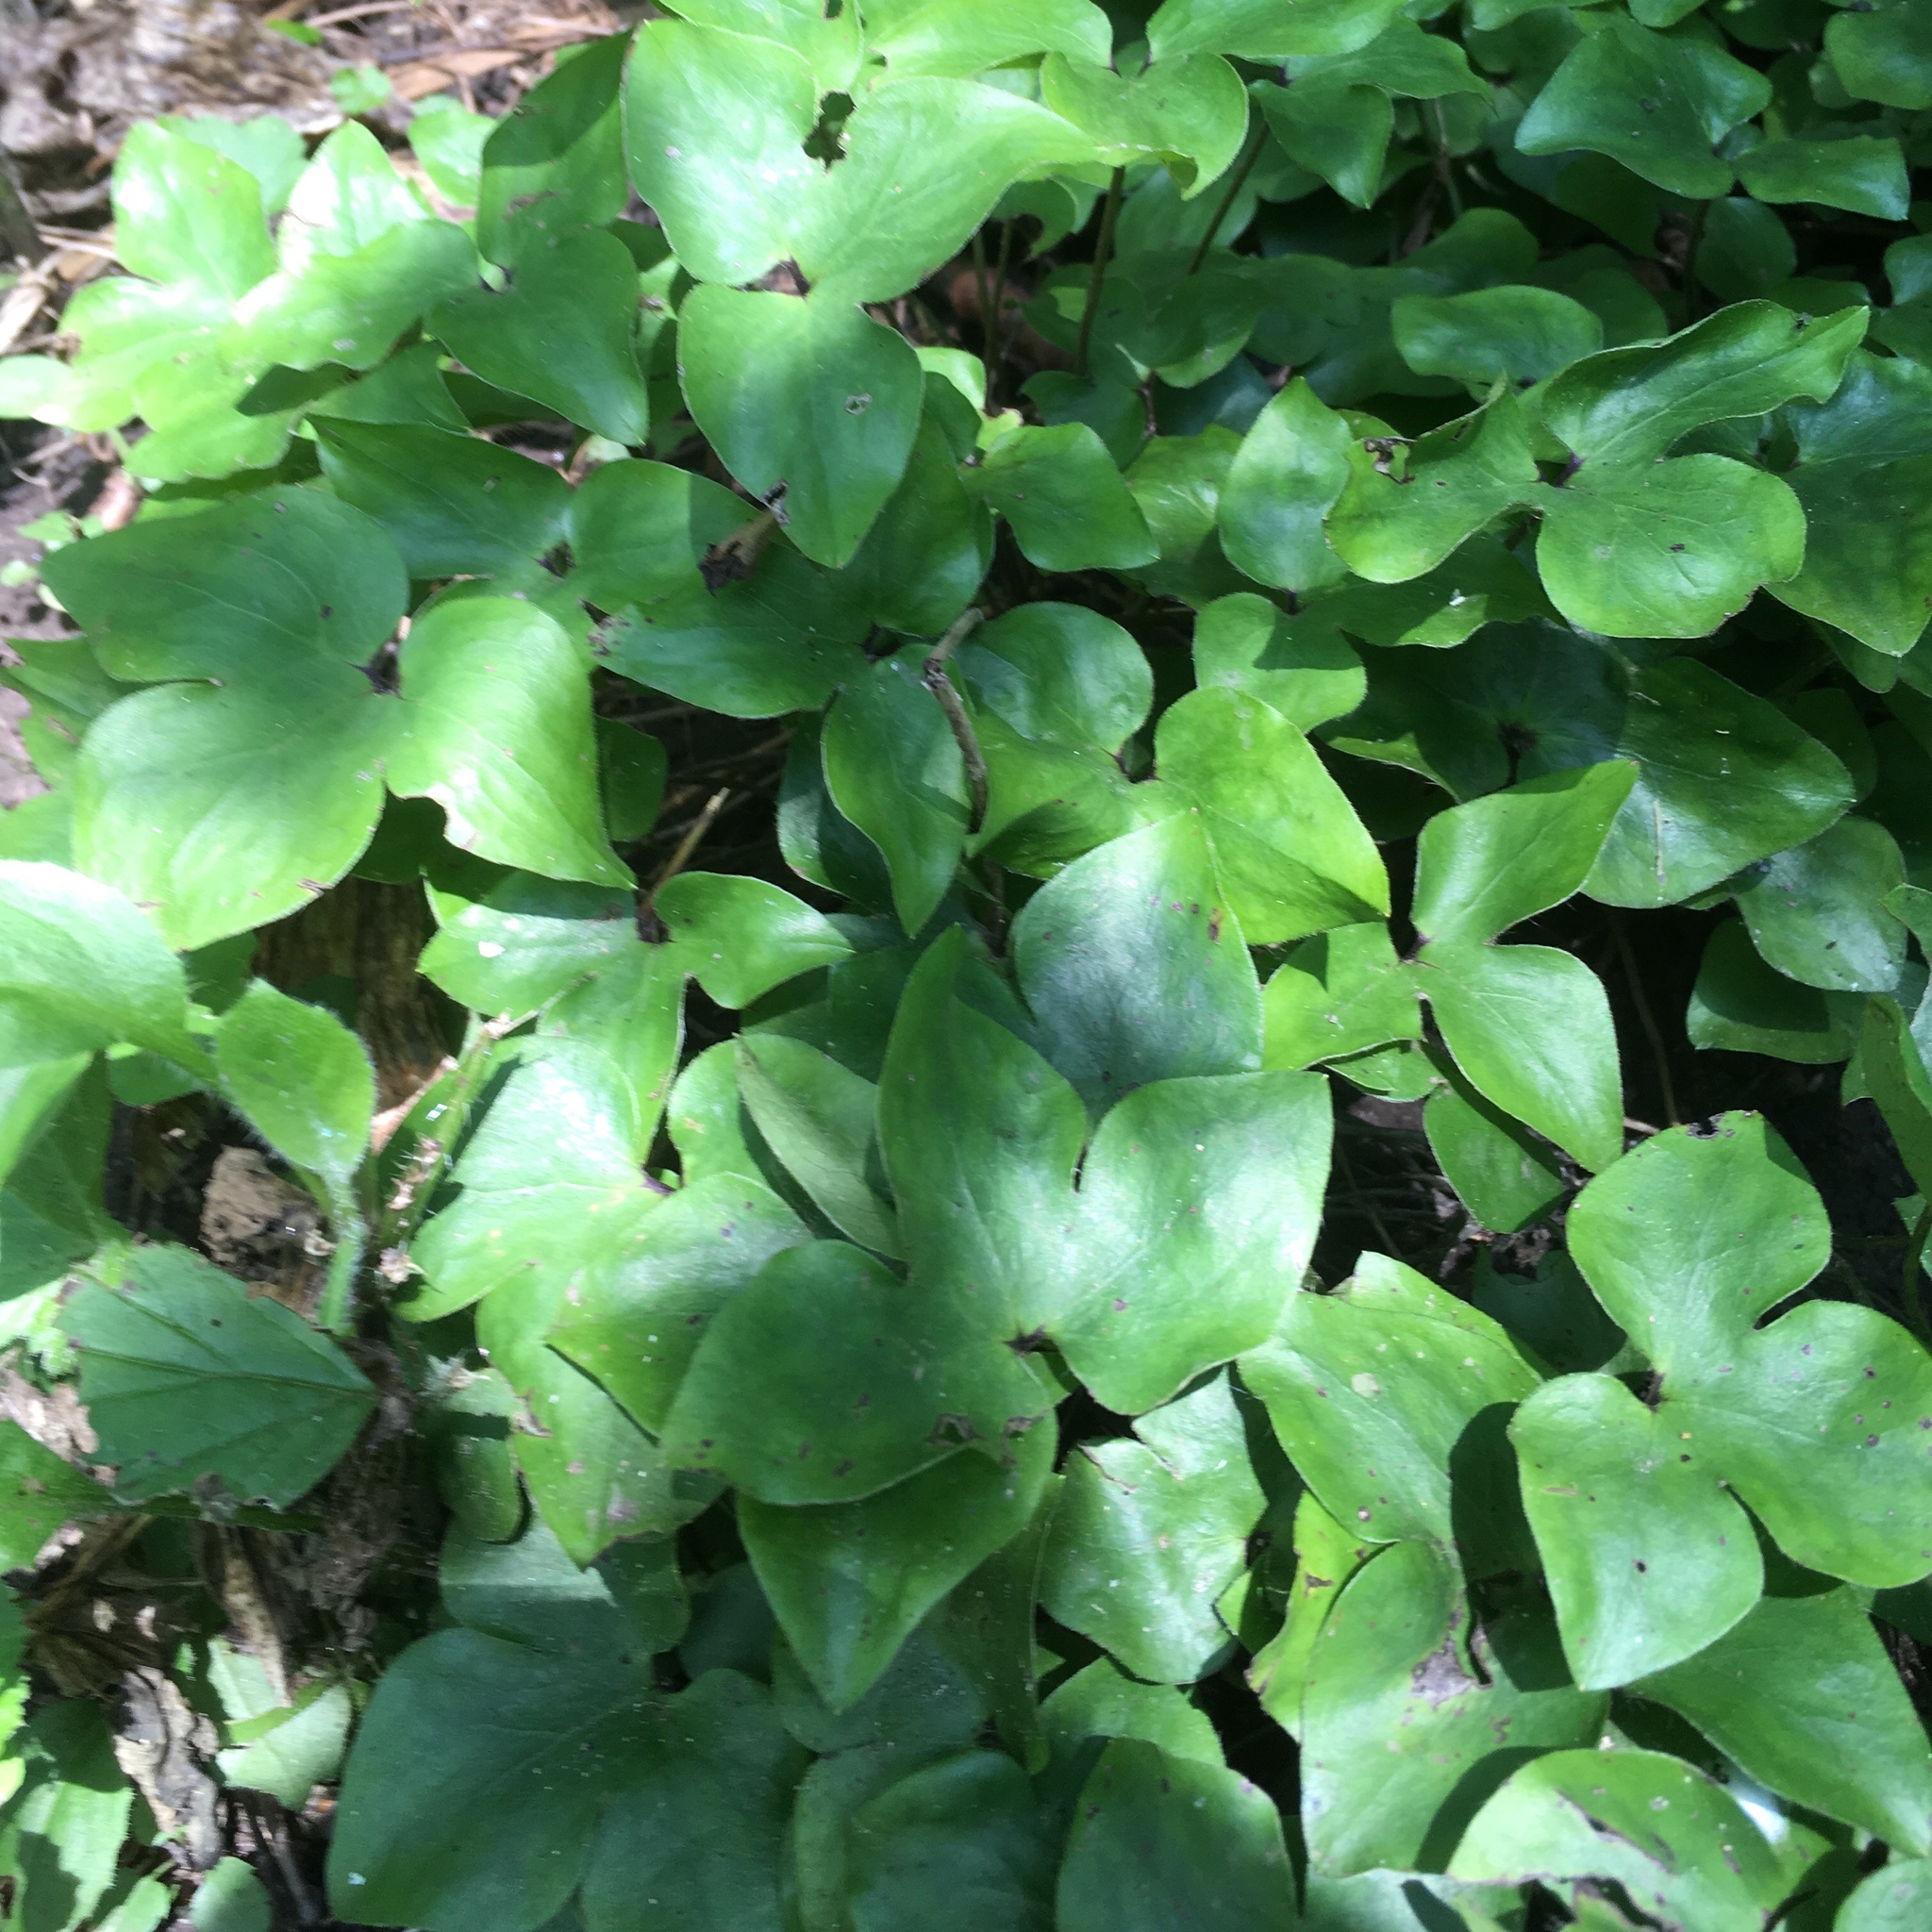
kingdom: Plantae
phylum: Tracheophyta
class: Magnoliopsida
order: Ranunculales
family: Ranunculaceae
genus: Hepatica
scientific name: Hepatica acutiloba
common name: Sharp-lobed hepatica
